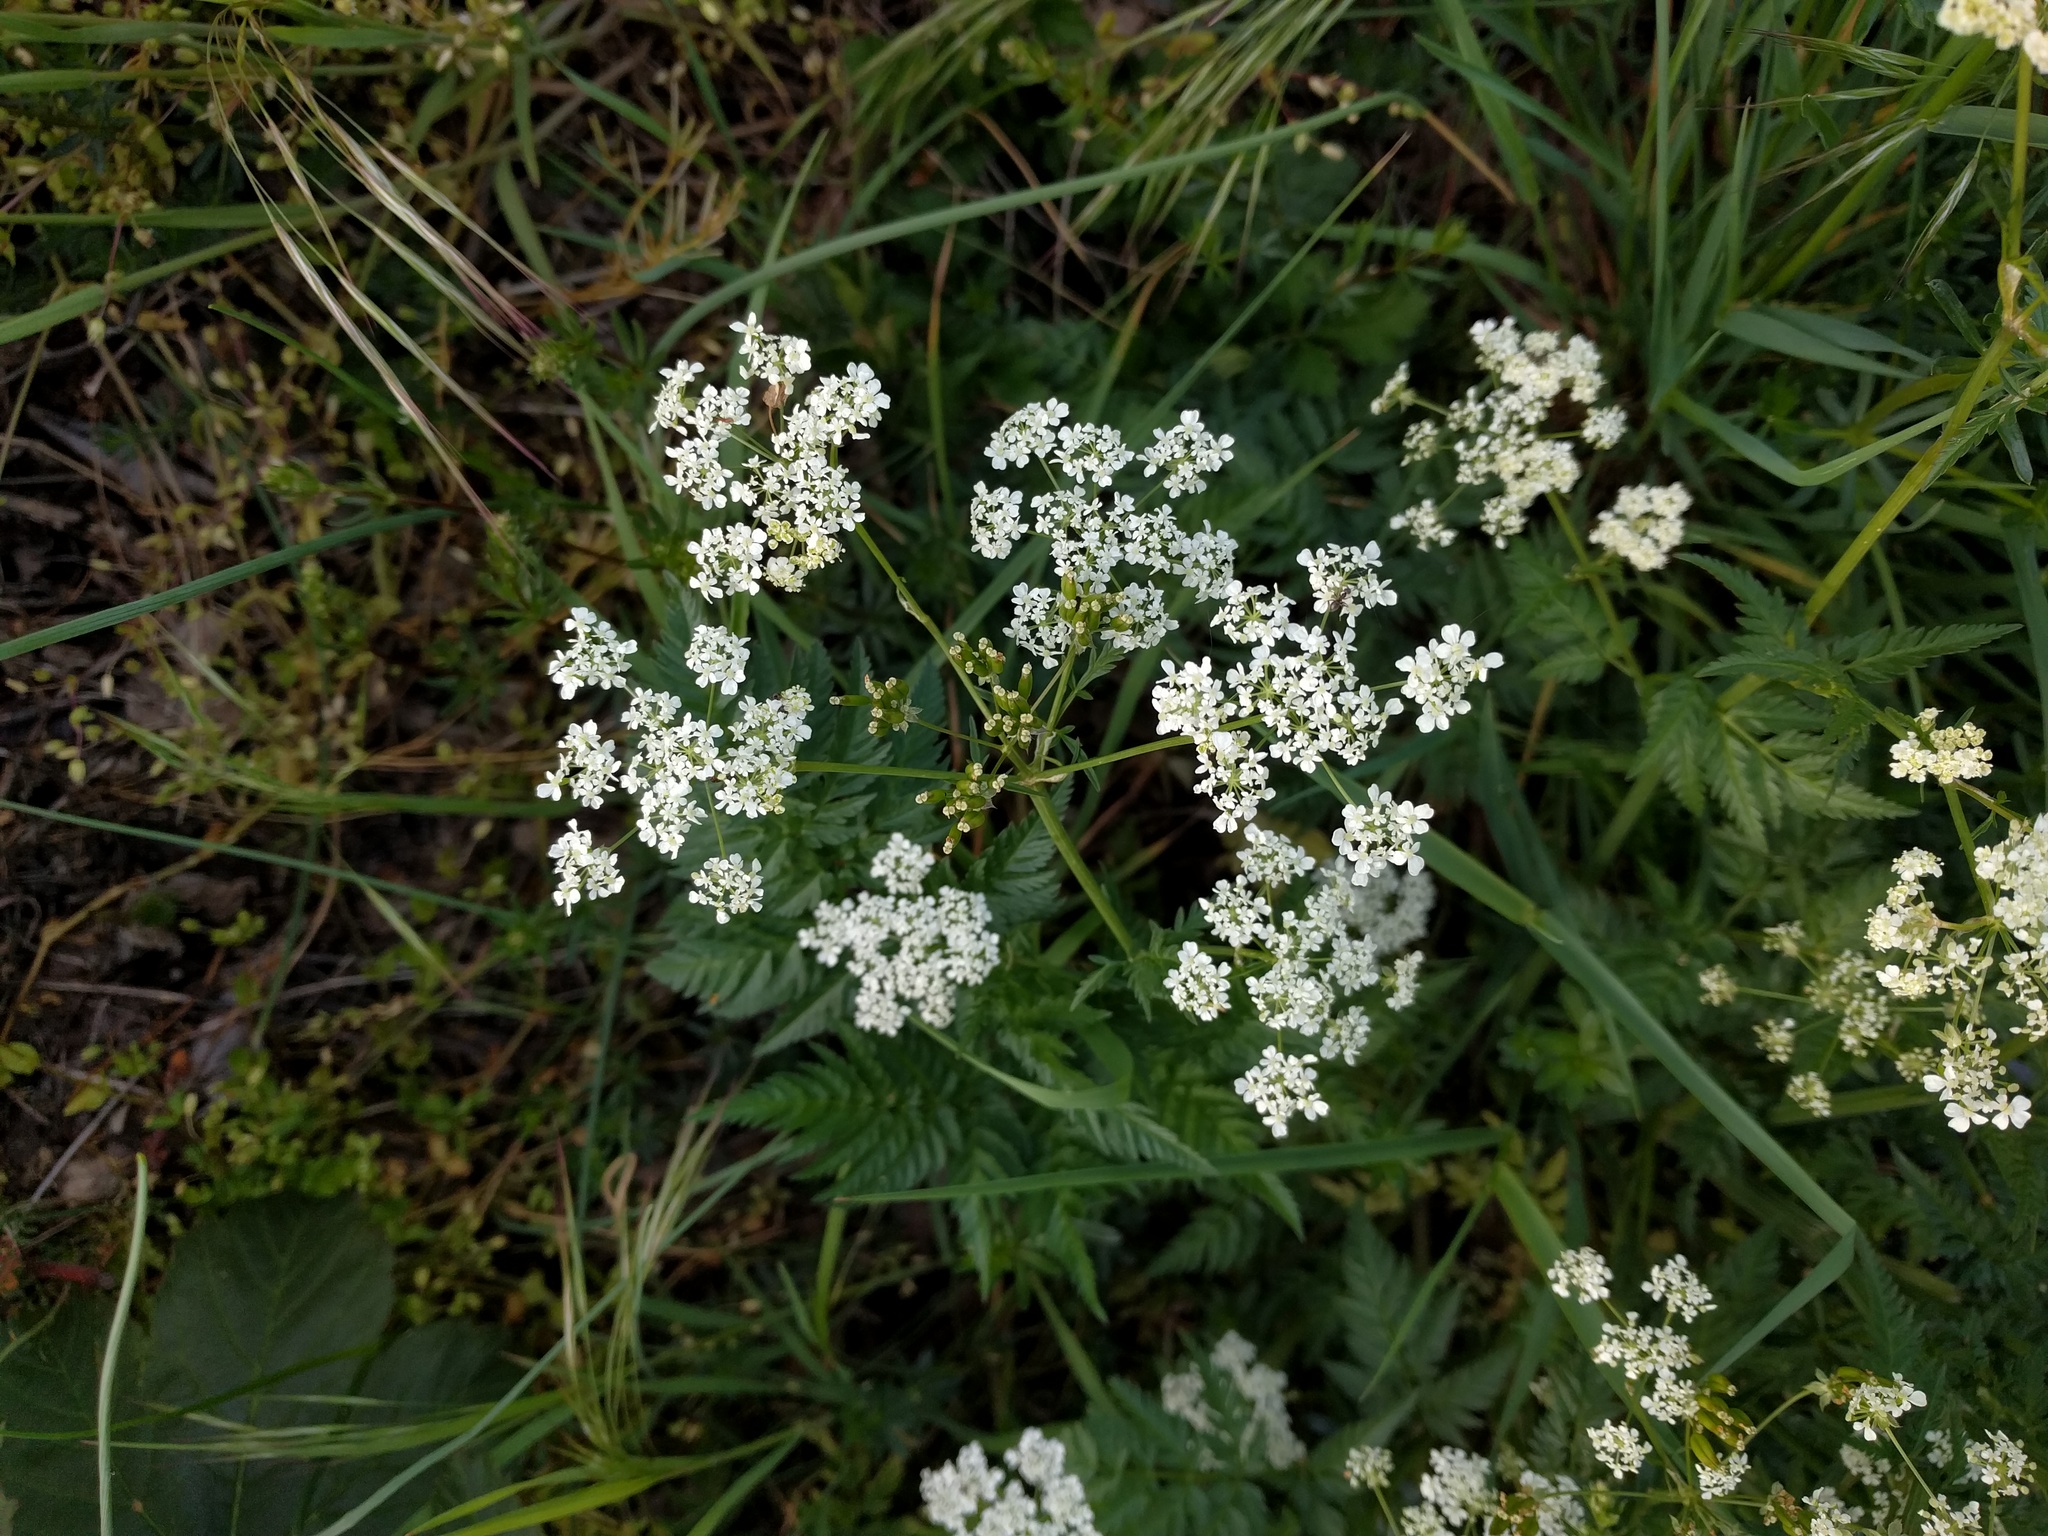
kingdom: Plantae
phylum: Tracheophyta
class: Magnoliopsida
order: Apiales
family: Apiaceae
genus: Anthriscus
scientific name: Anthriscus sylvestris
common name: Cow parsley
